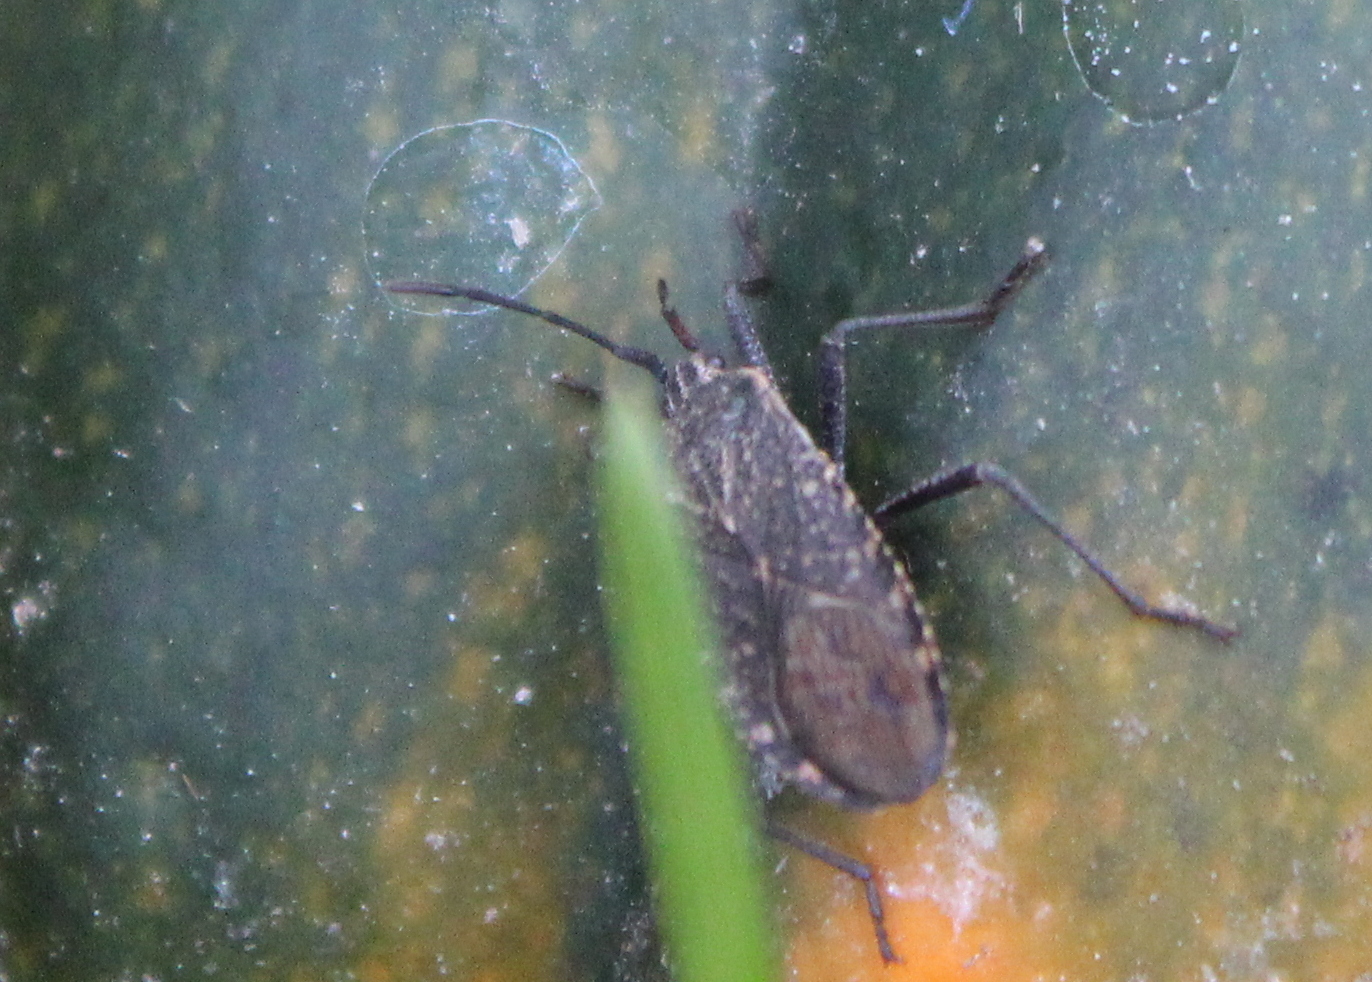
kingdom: Animalia
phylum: Arthropoda
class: Insecta
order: Hemiptera
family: Coreidae
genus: Anasa
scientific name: Anasa tristis
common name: Squash bug
